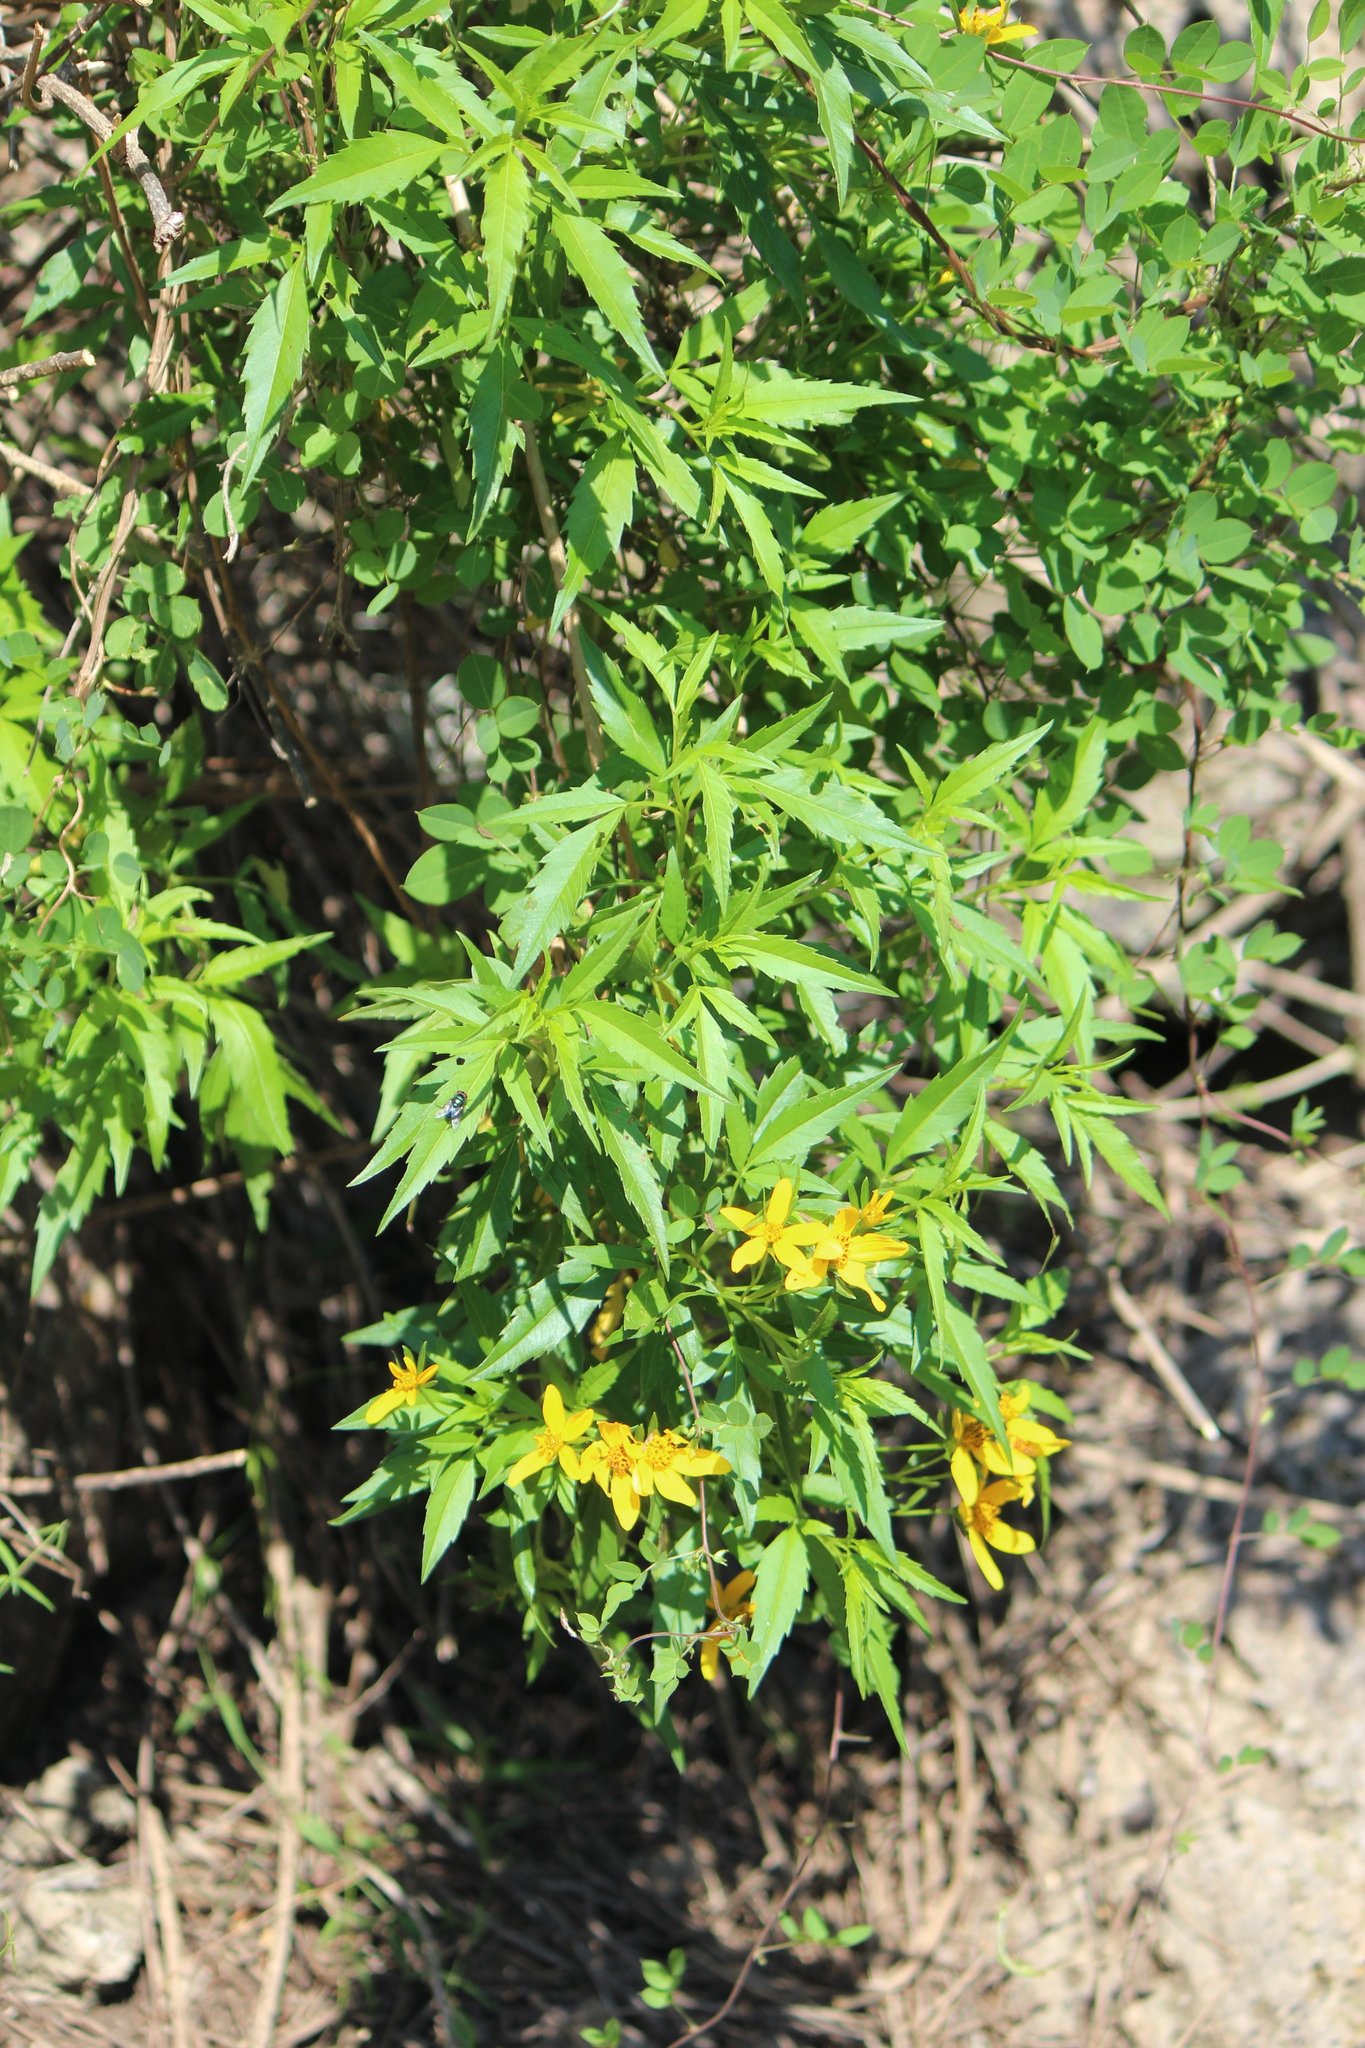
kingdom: Plantae
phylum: Tracheophyta
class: Magnoliopsida
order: Asterales
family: Asteraceae
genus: Electranthera
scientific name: Electranthera mutica
